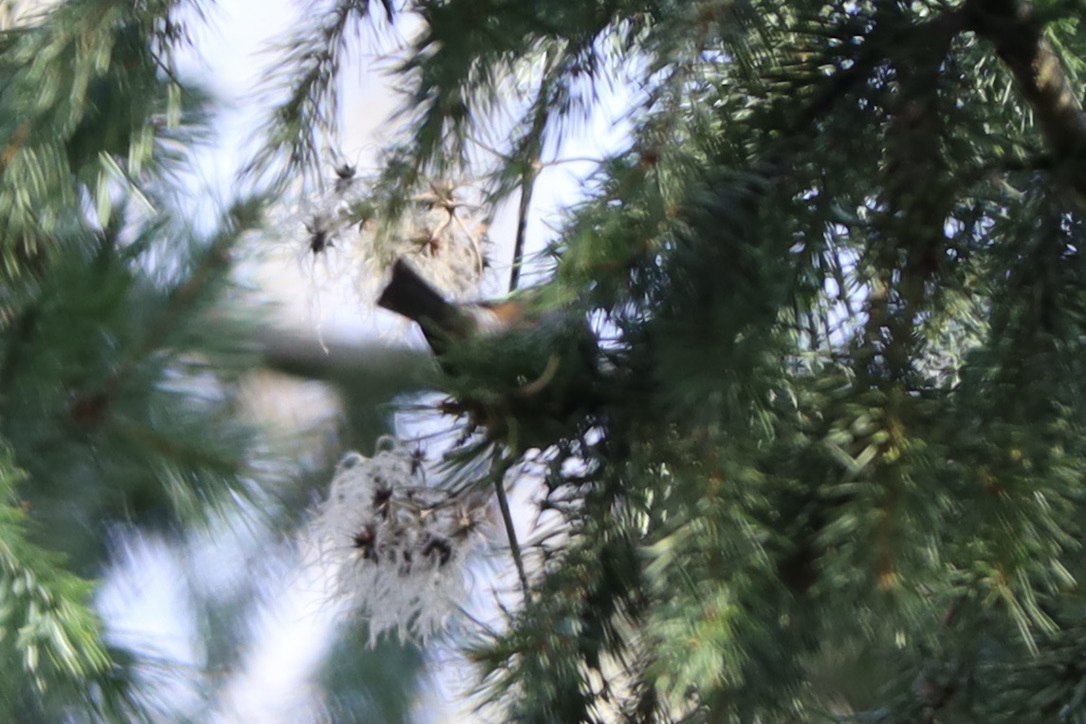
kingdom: Animalia
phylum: Chordata
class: Aves
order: Passeriformes
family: Paridae
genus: Poecile
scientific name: Poecile rufescens
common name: Chestnut-backed chickadee
